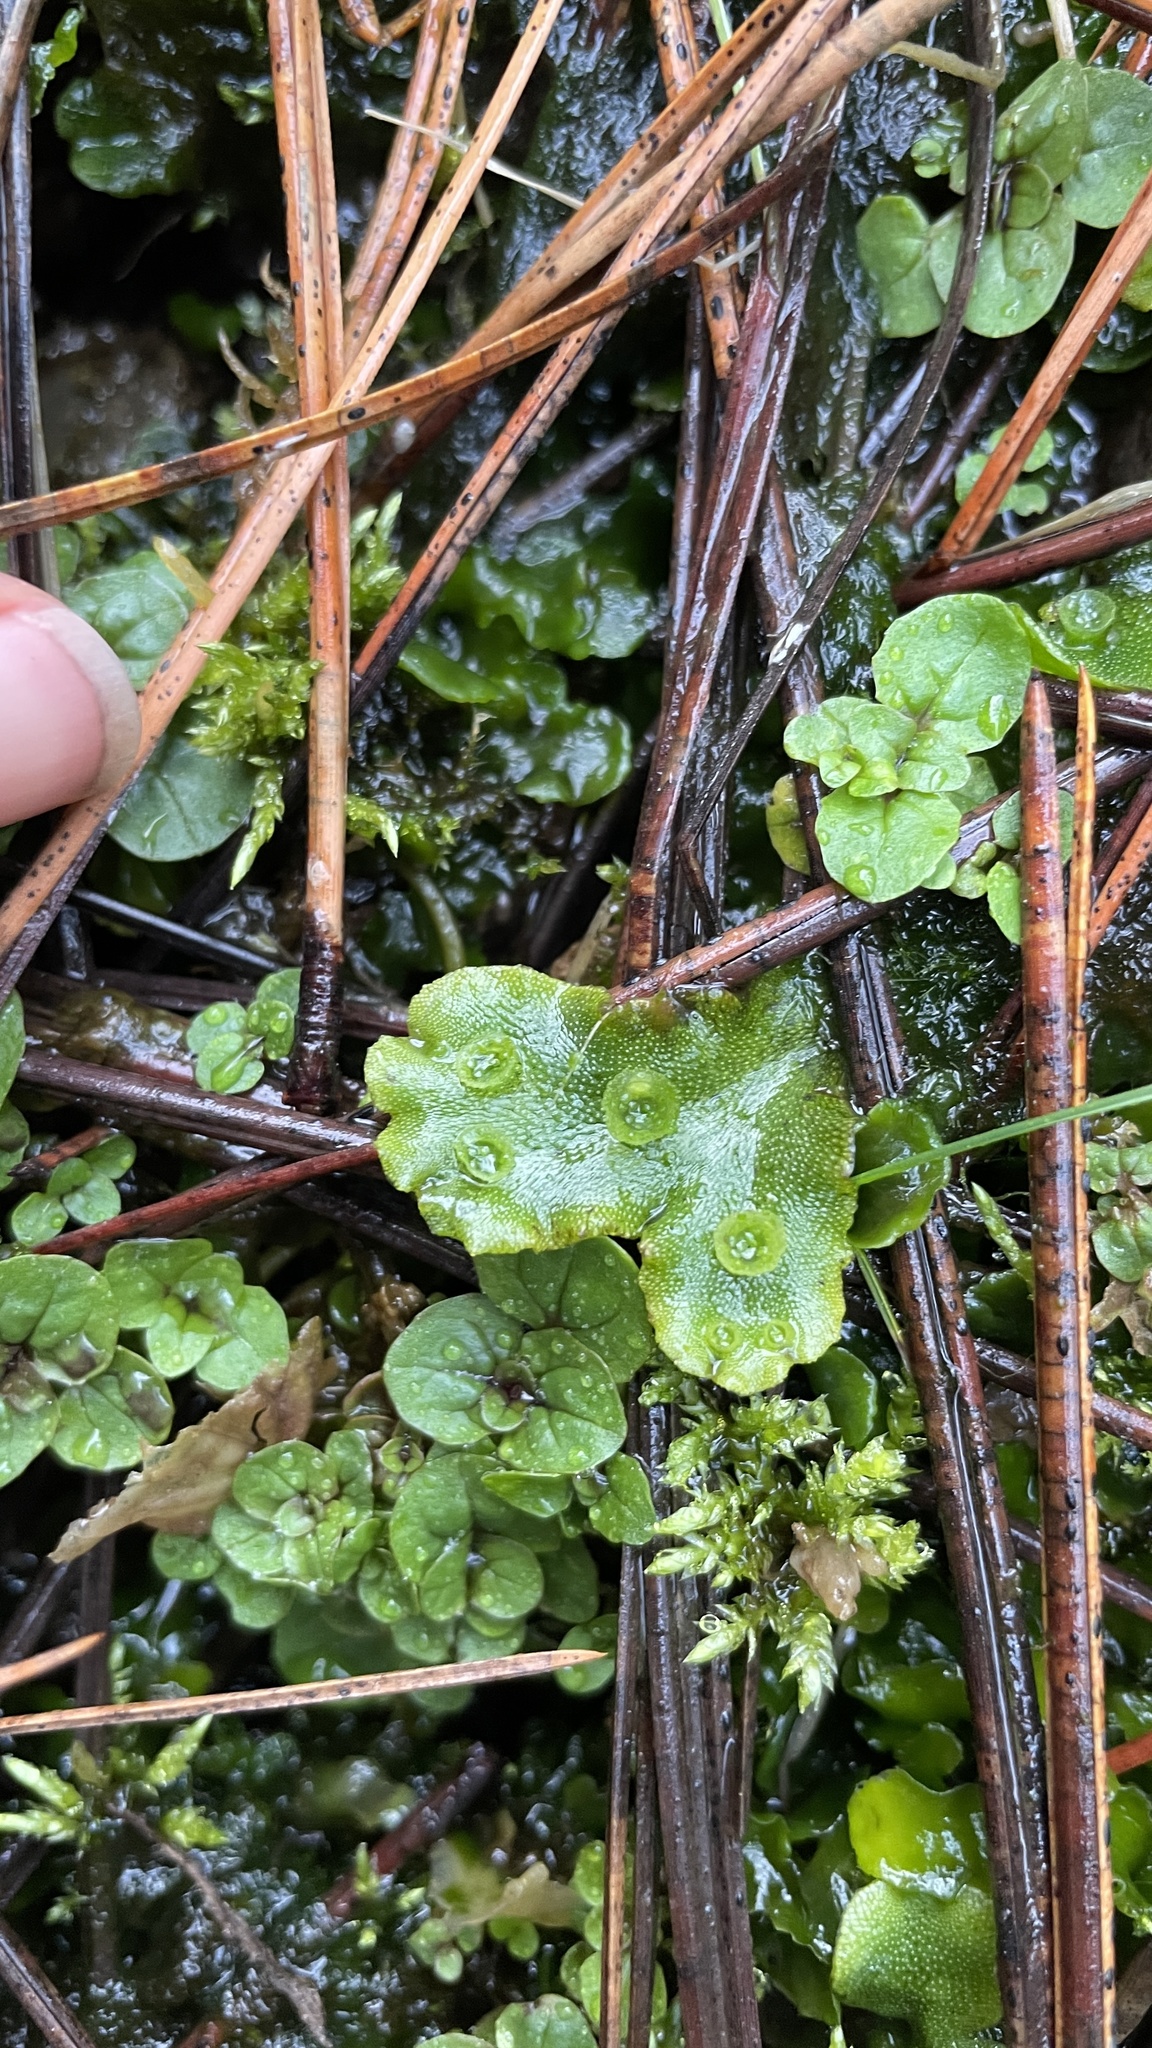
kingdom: Plantae
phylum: Marchantiophyta
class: Marchantiopsida
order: Marchantiales
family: Marchantiaceae
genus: Marchantia
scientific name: Marchantia polymorpha
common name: Common liverwort
